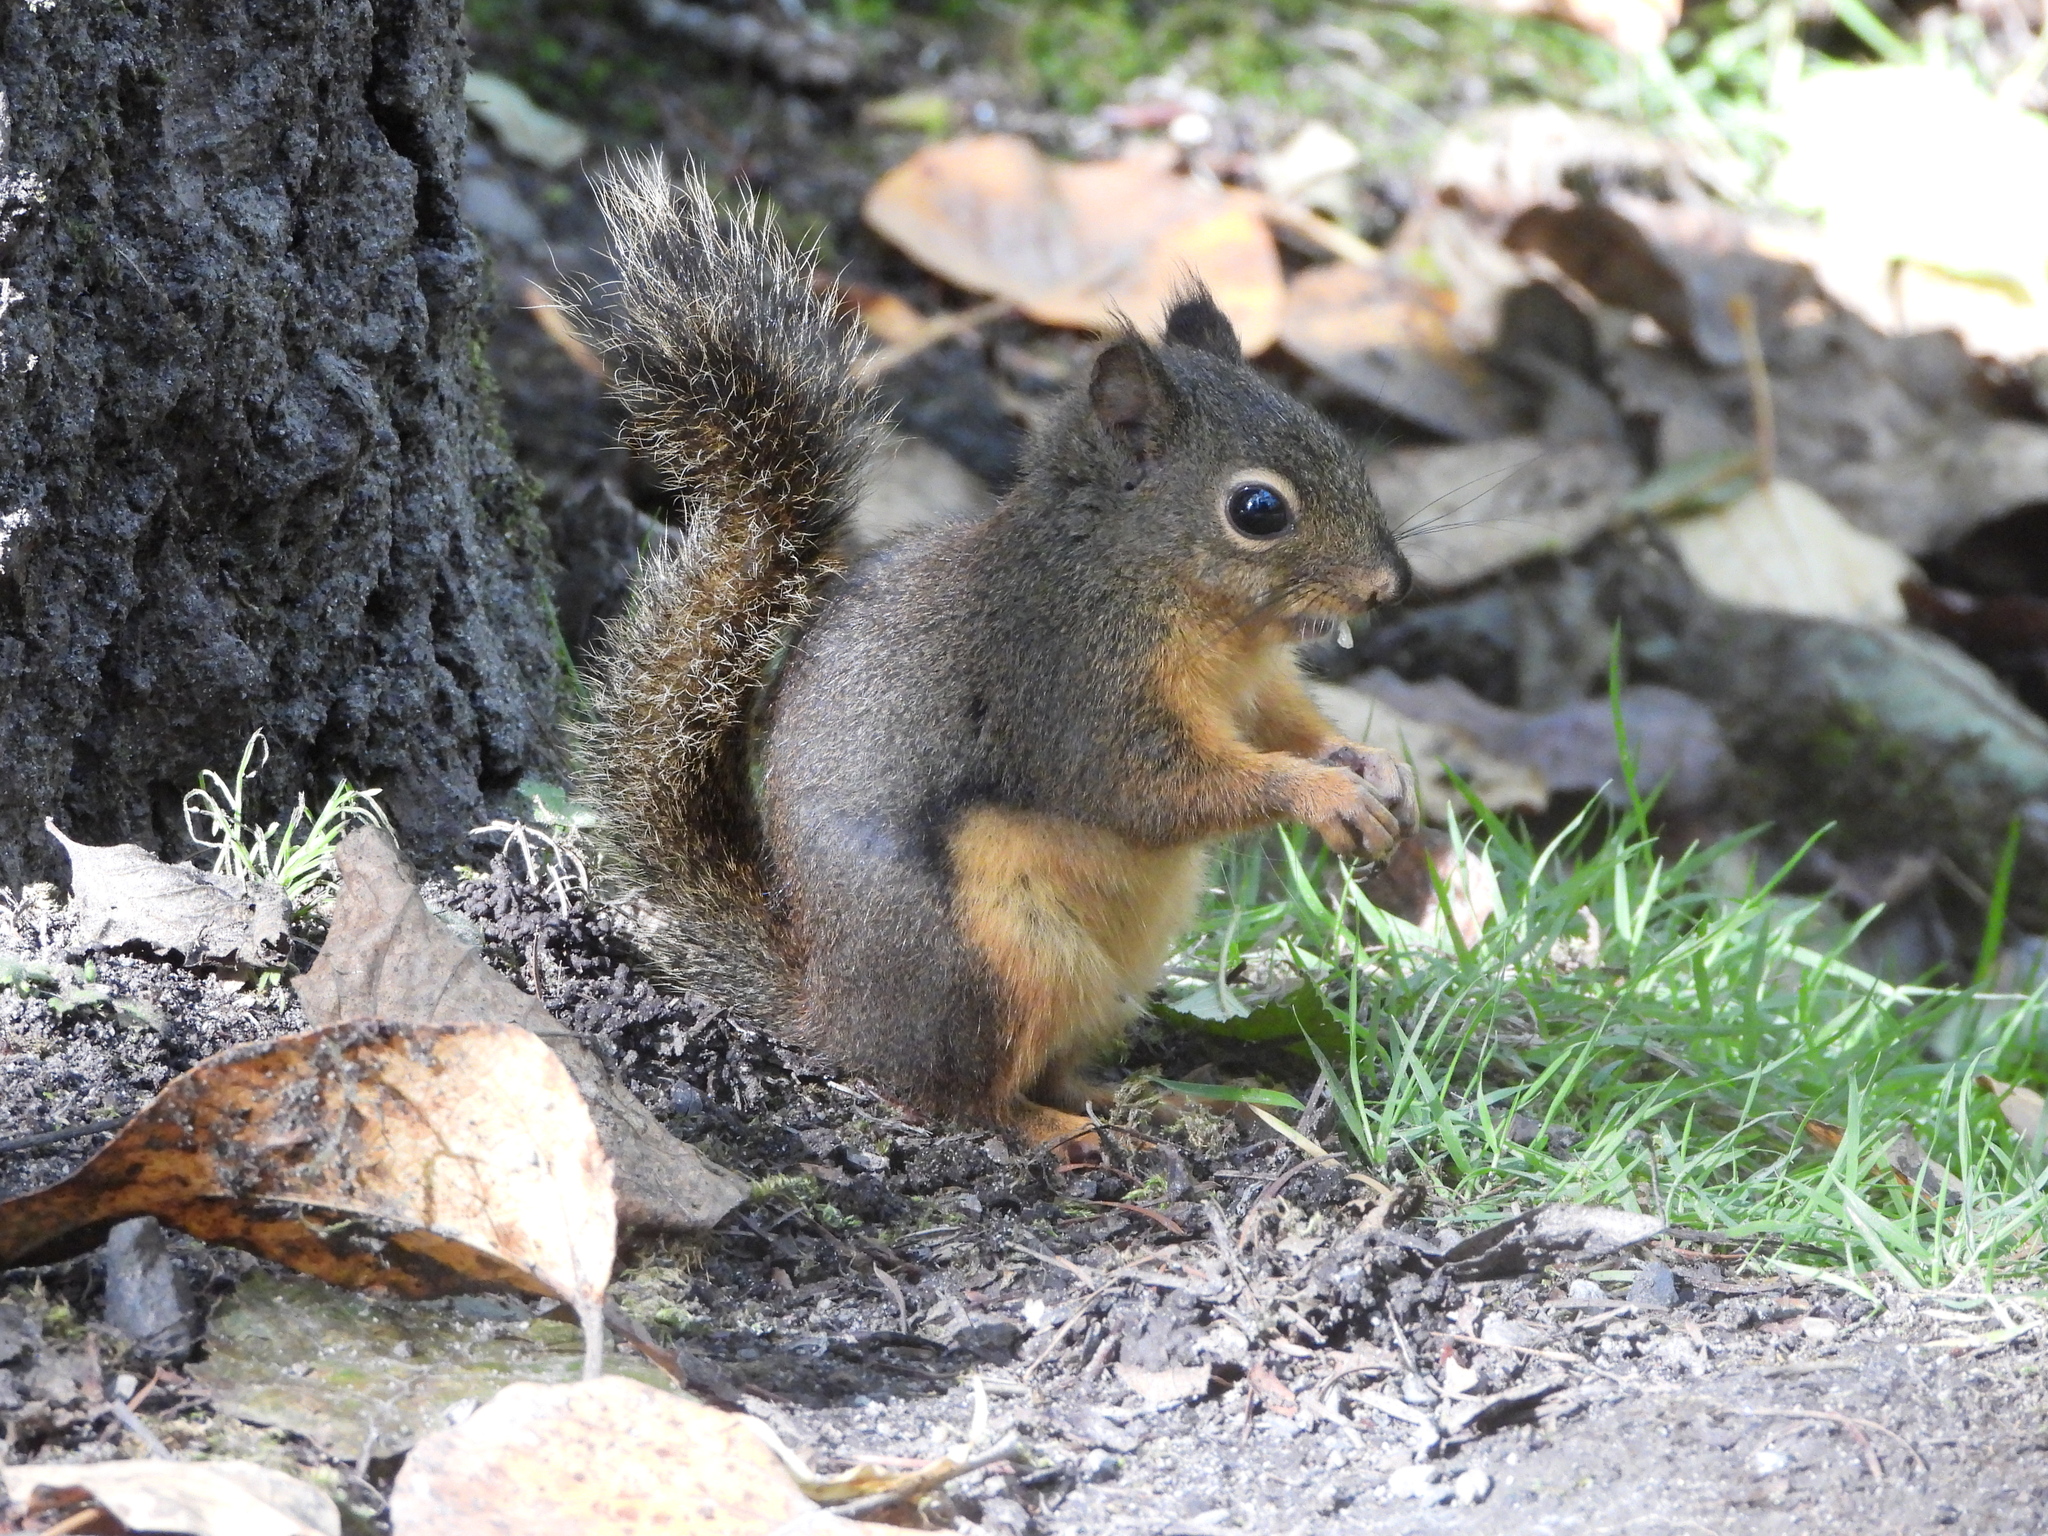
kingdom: Animalia
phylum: Chordata
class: Mammalia
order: Rodentia
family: Sciuridae
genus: Tamiasciurus
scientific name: Tamiasciurus douglasii
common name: Douglas's squirrel
